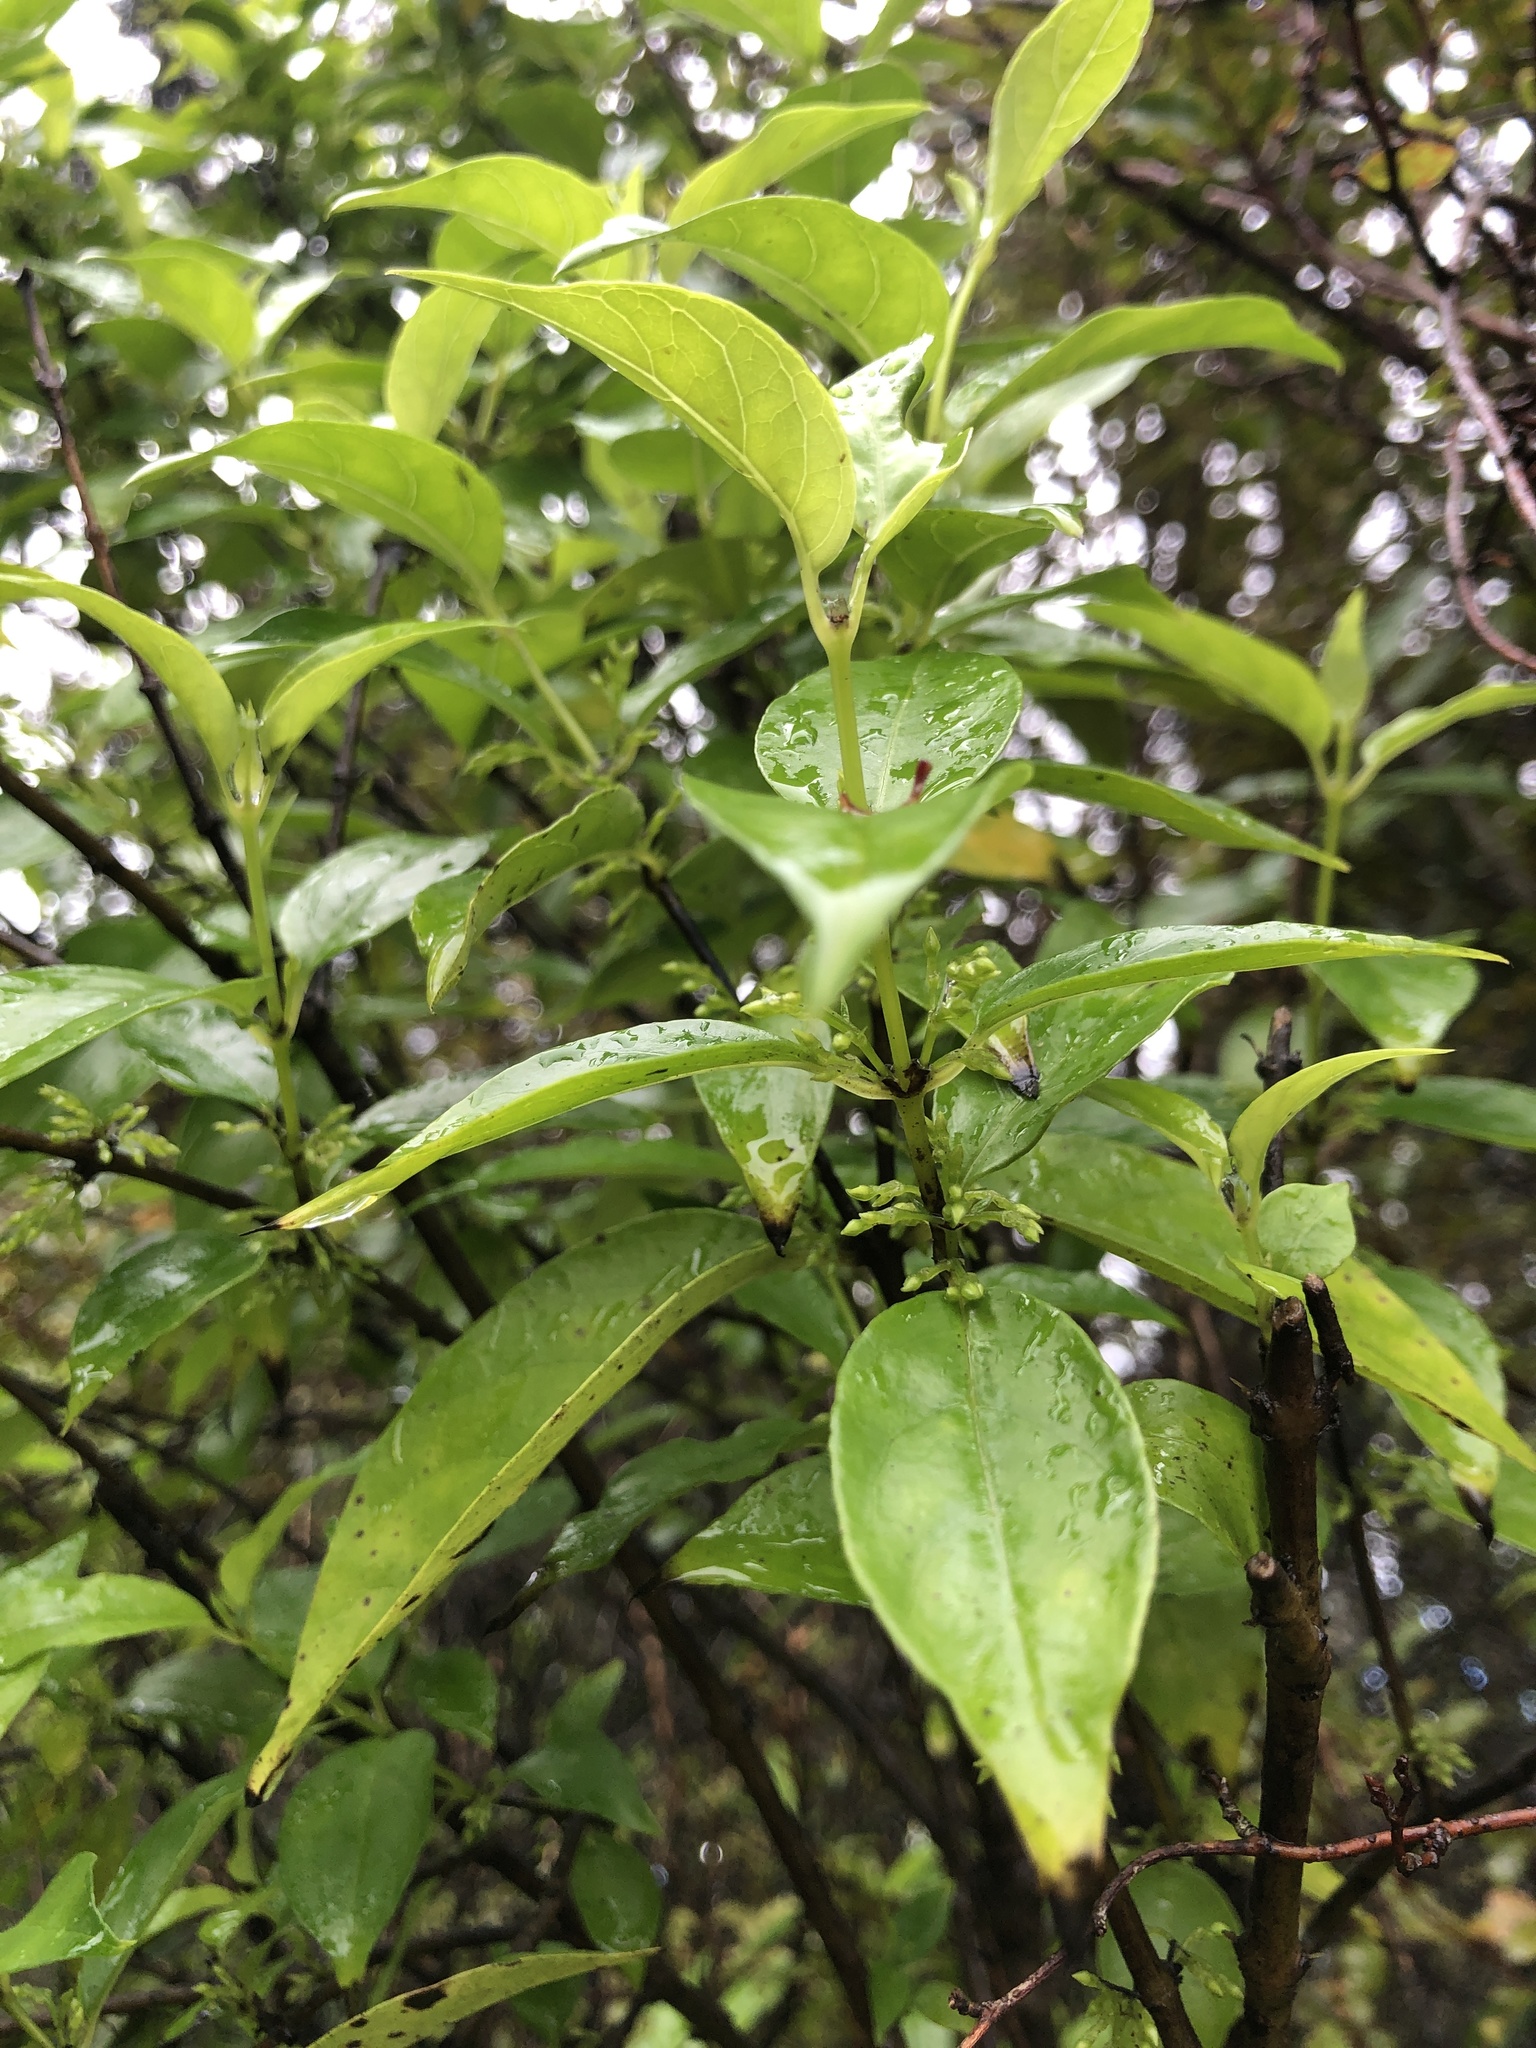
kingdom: Plantae
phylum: Tracheophyta
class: Magnoliopsida
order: Gentianales
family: Loganiaceae
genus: Geniostoma
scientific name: Geniostoma ligustrifolium
